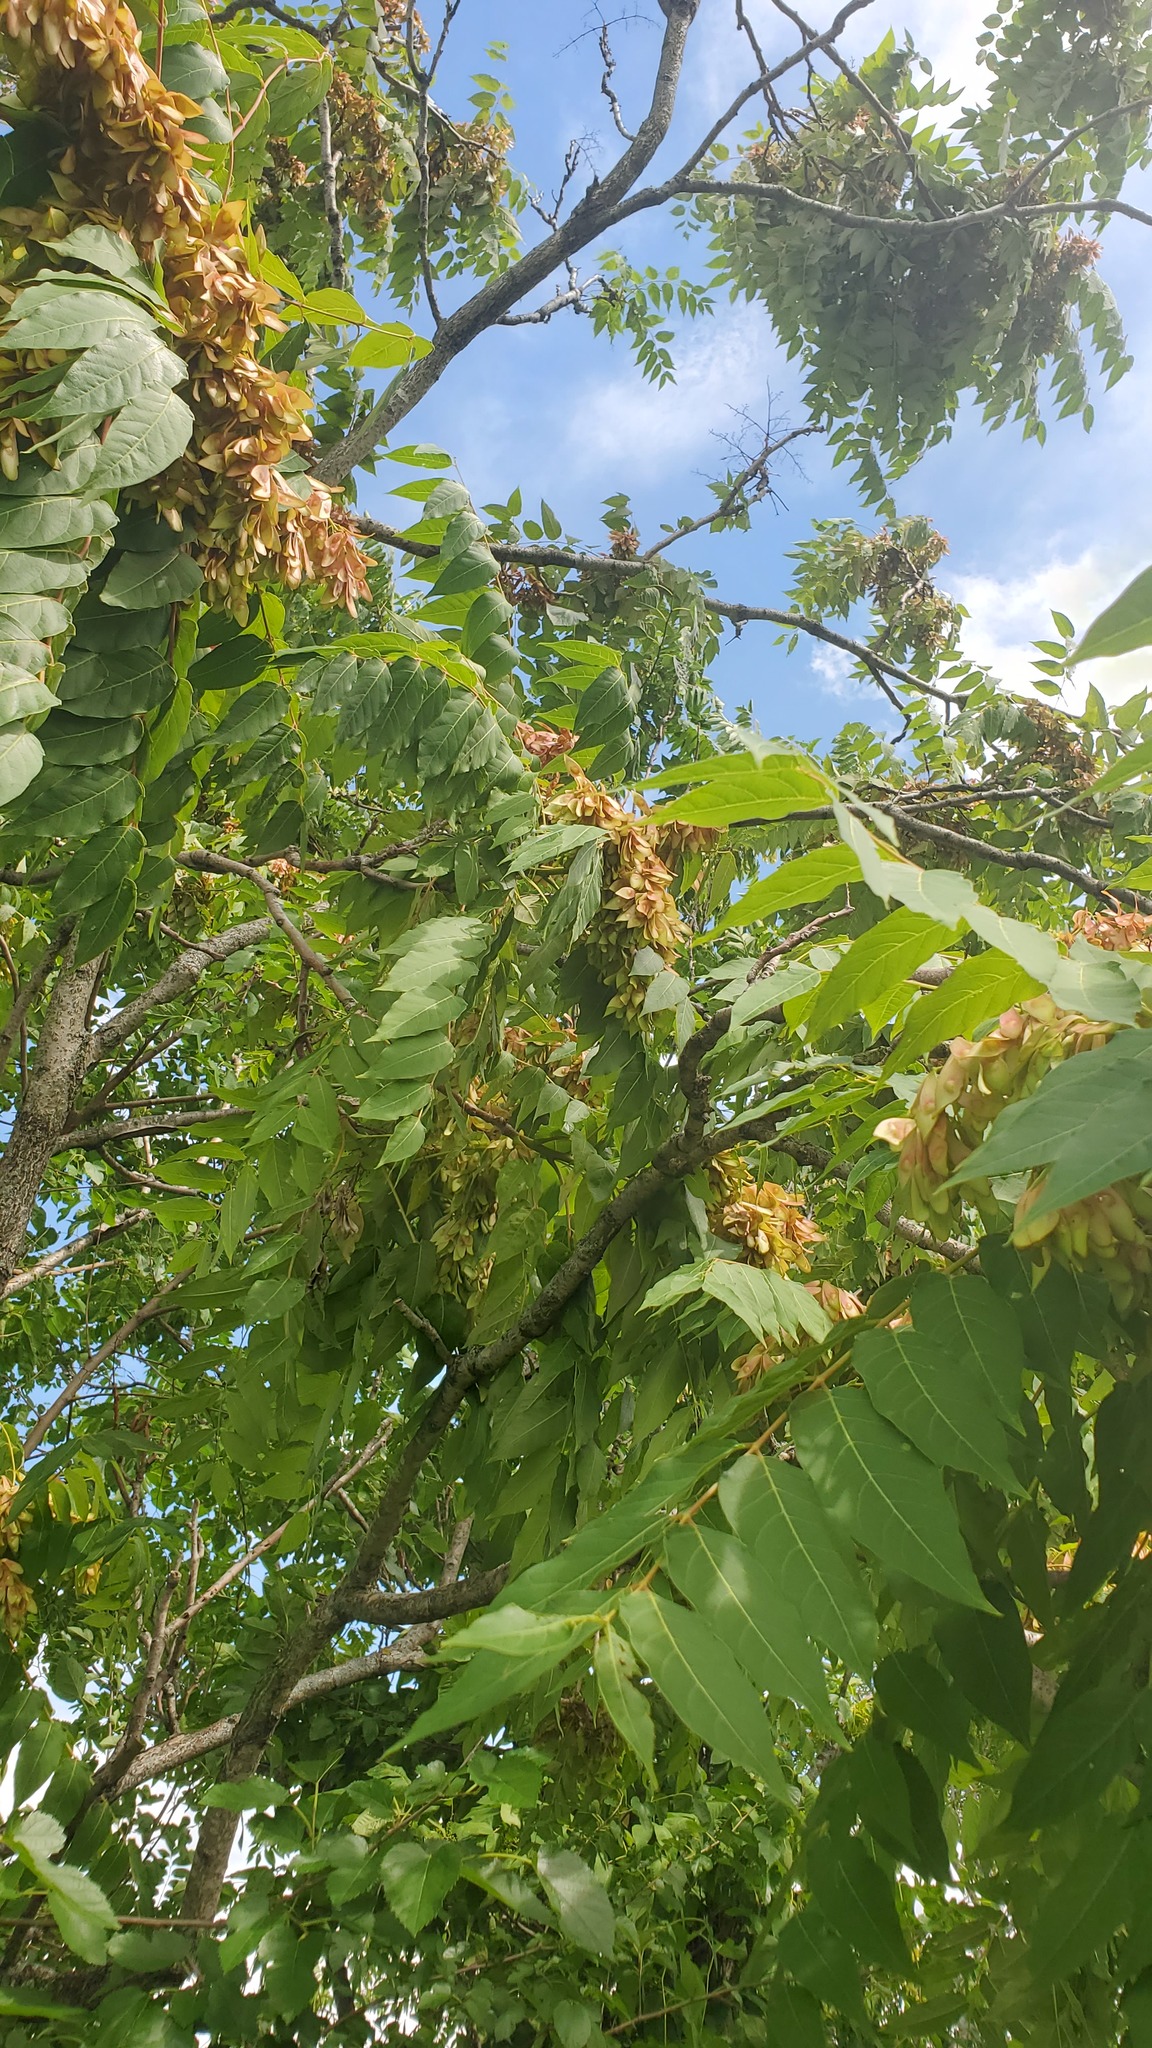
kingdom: Plantae
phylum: Tracheophyta
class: Magnoliopsida
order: Sapindales
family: Simaroubaceae
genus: Ailanthus
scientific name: Ailanthus altissima
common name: Tree-of-heaven
